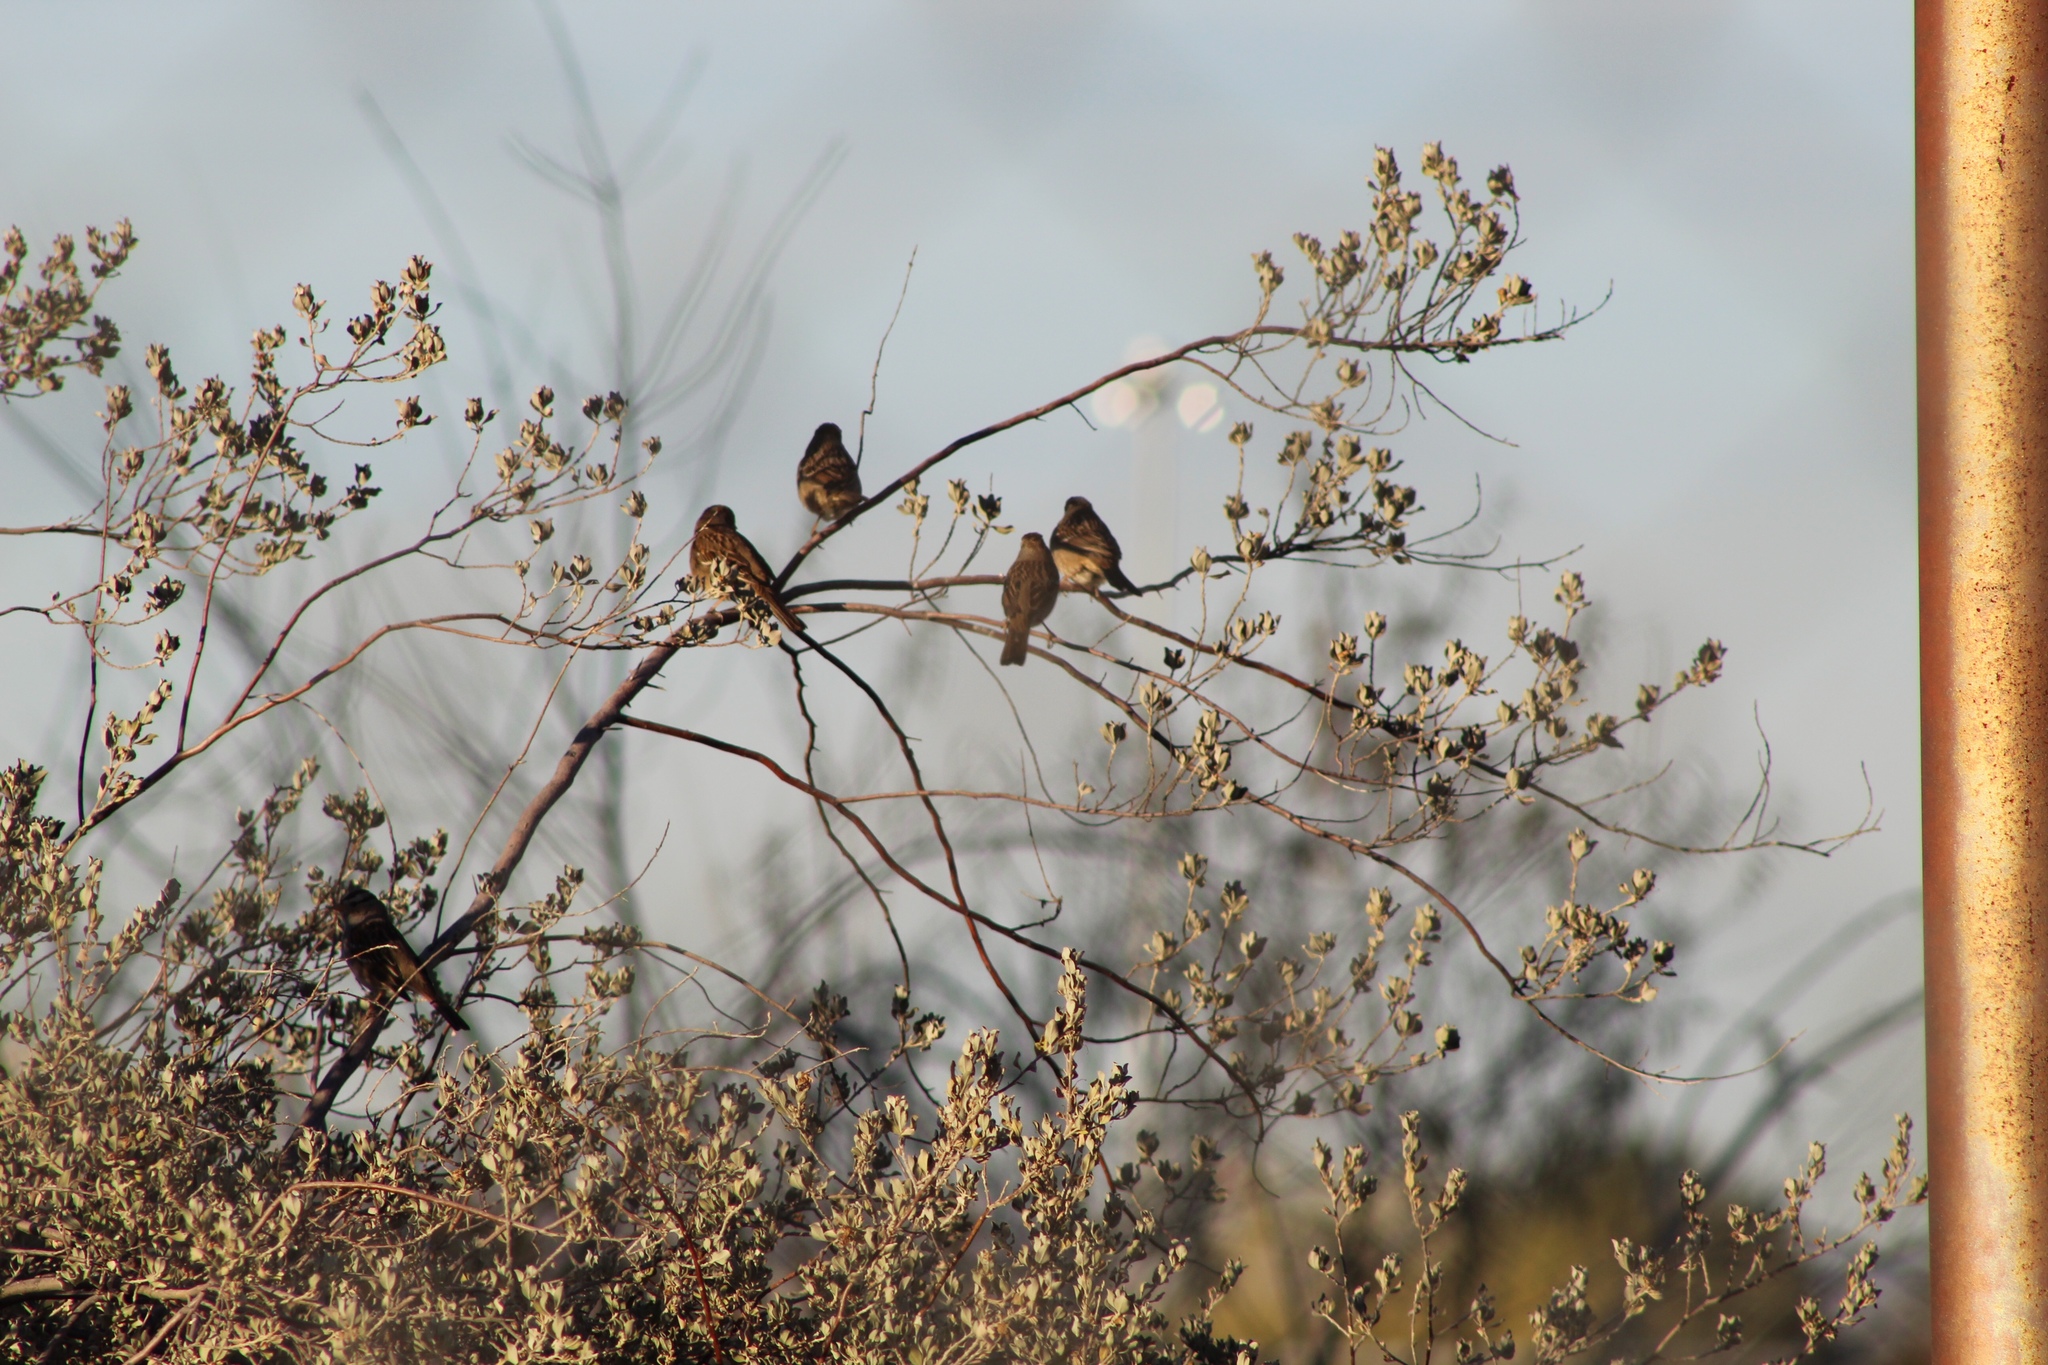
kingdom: Animalia
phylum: Chordata
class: Aves
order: Passeriformes
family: Passerellidae
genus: Zonotrichia
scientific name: Zonotrichia leucophrys
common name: White-crowned sparrow
